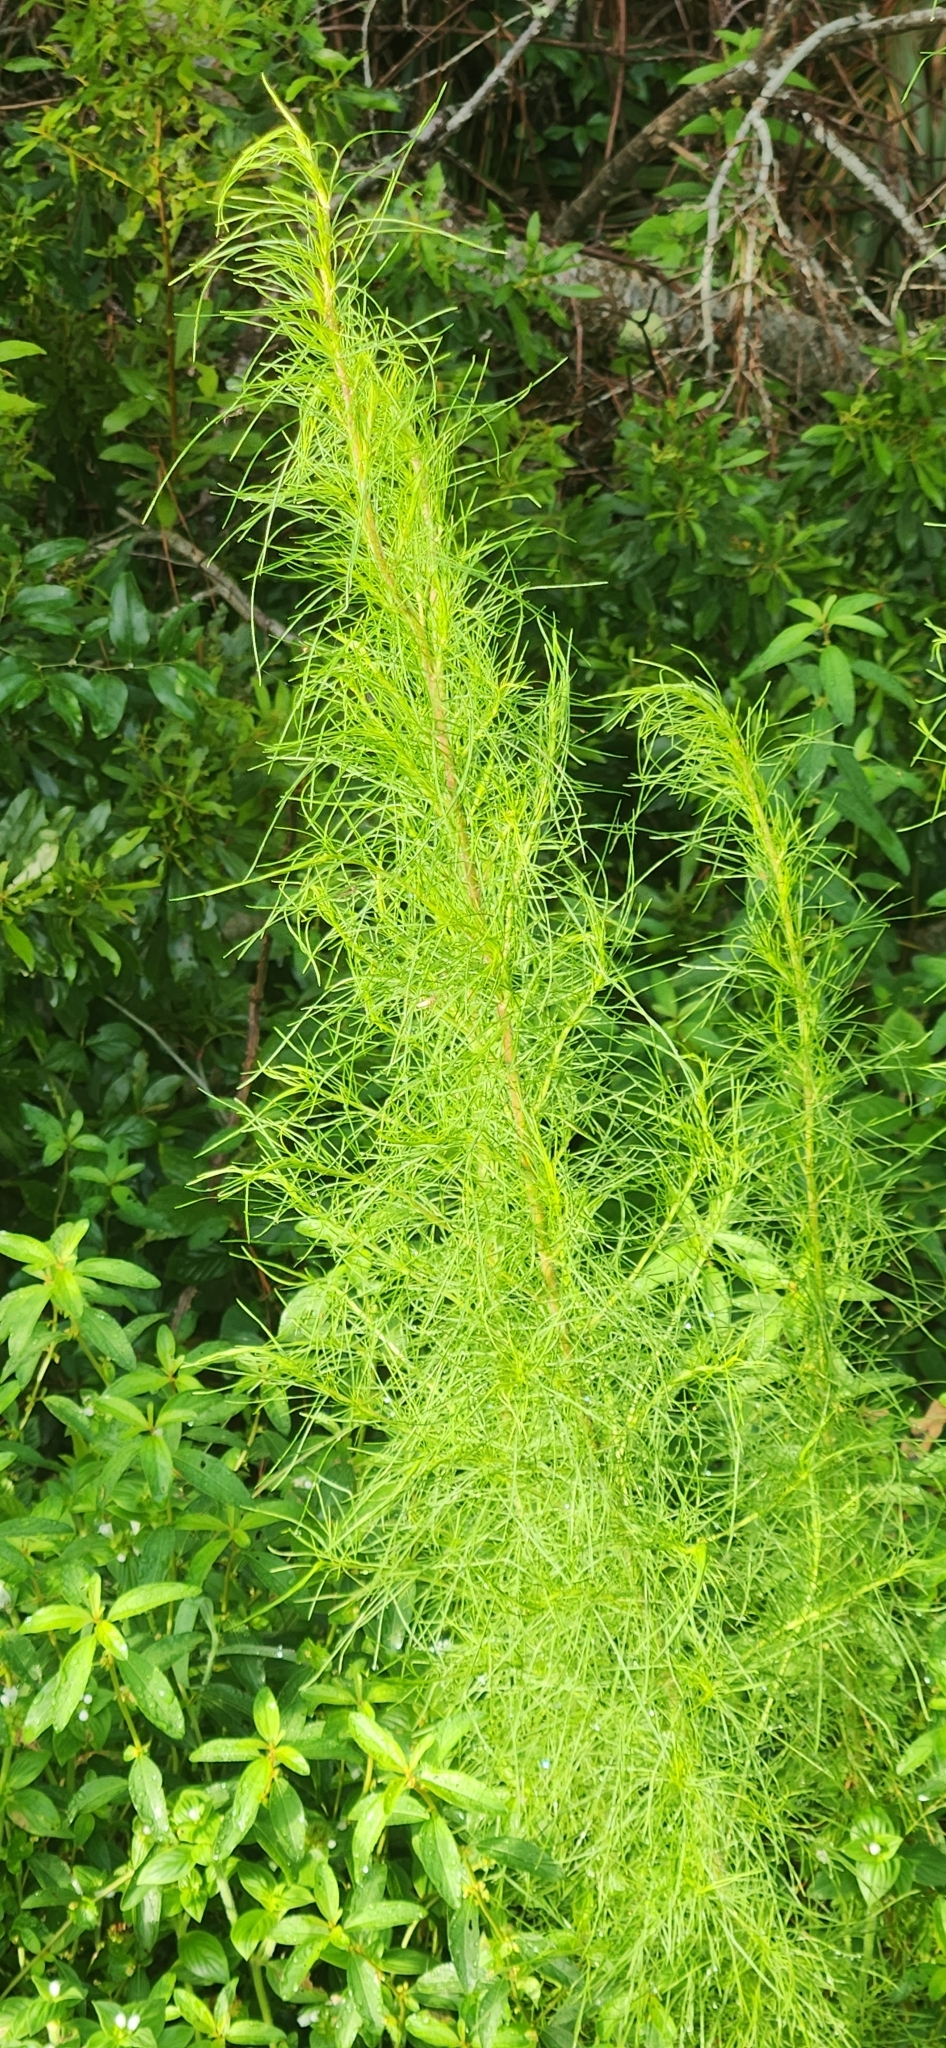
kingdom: Plantae
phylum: Tracheophyta
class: Magnoliopsida
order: Asterales
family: Asteraceae
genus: Eupatorium
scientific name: Eupatorium capillifolium
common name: Dog-fennel
